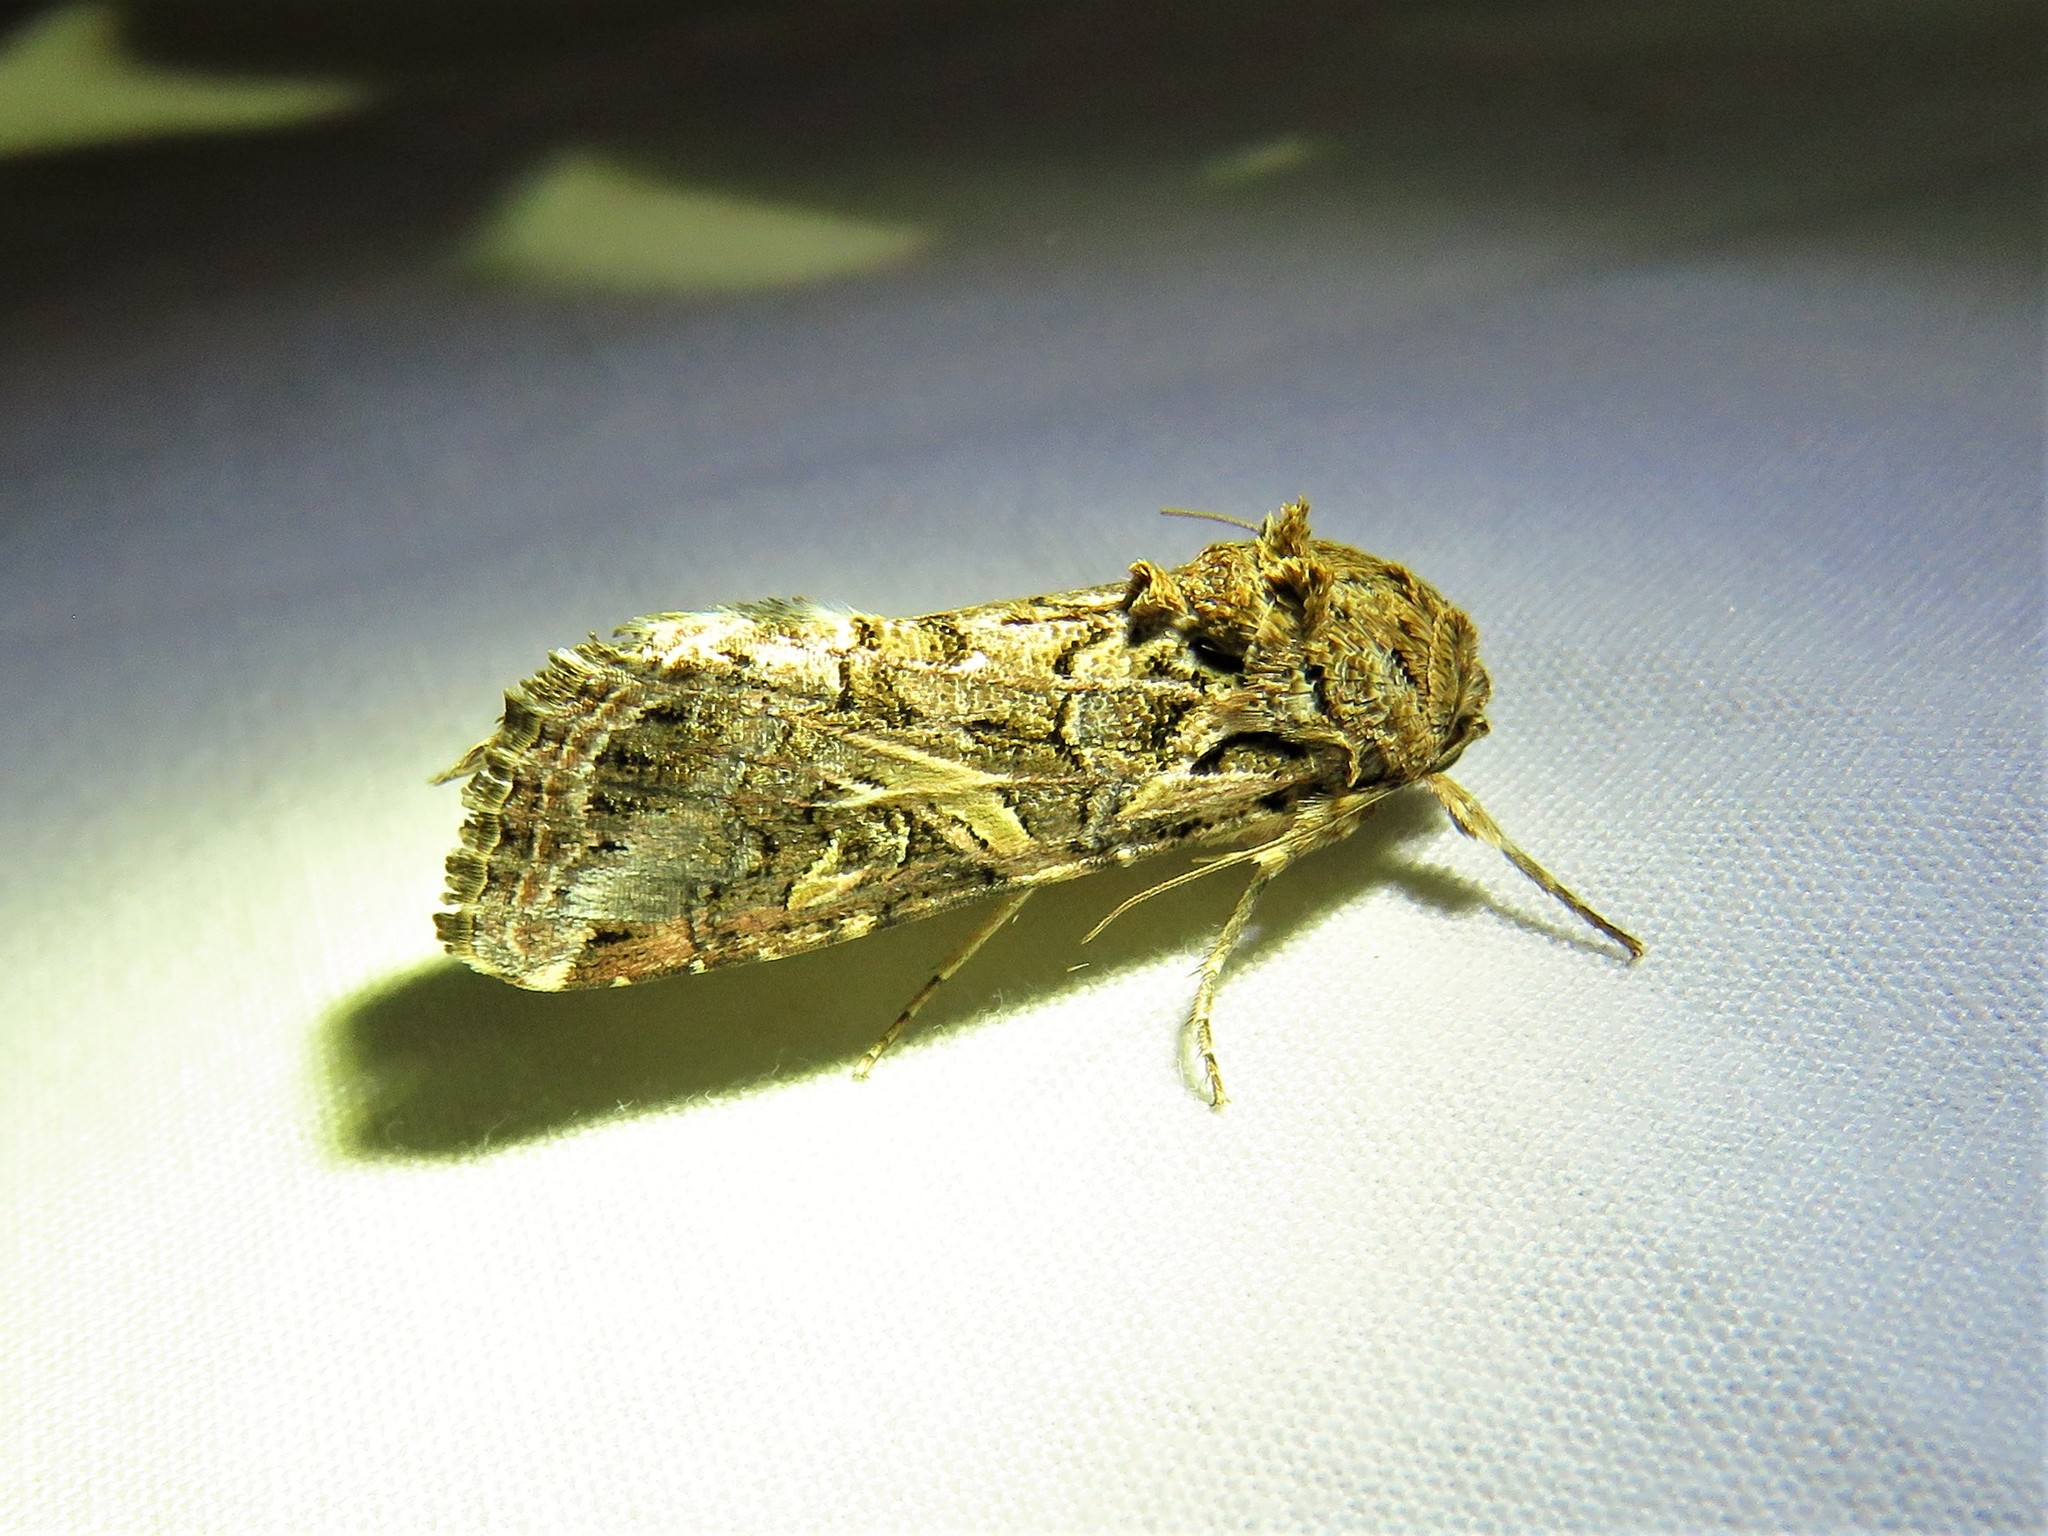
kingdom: Animalia
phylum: Arthropoda
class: Insecta
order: Lepidoptera
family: Noctuidae
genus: Spodoptera
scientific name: Spodoptera ornithogalli
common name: Yellow-striped armyworm
